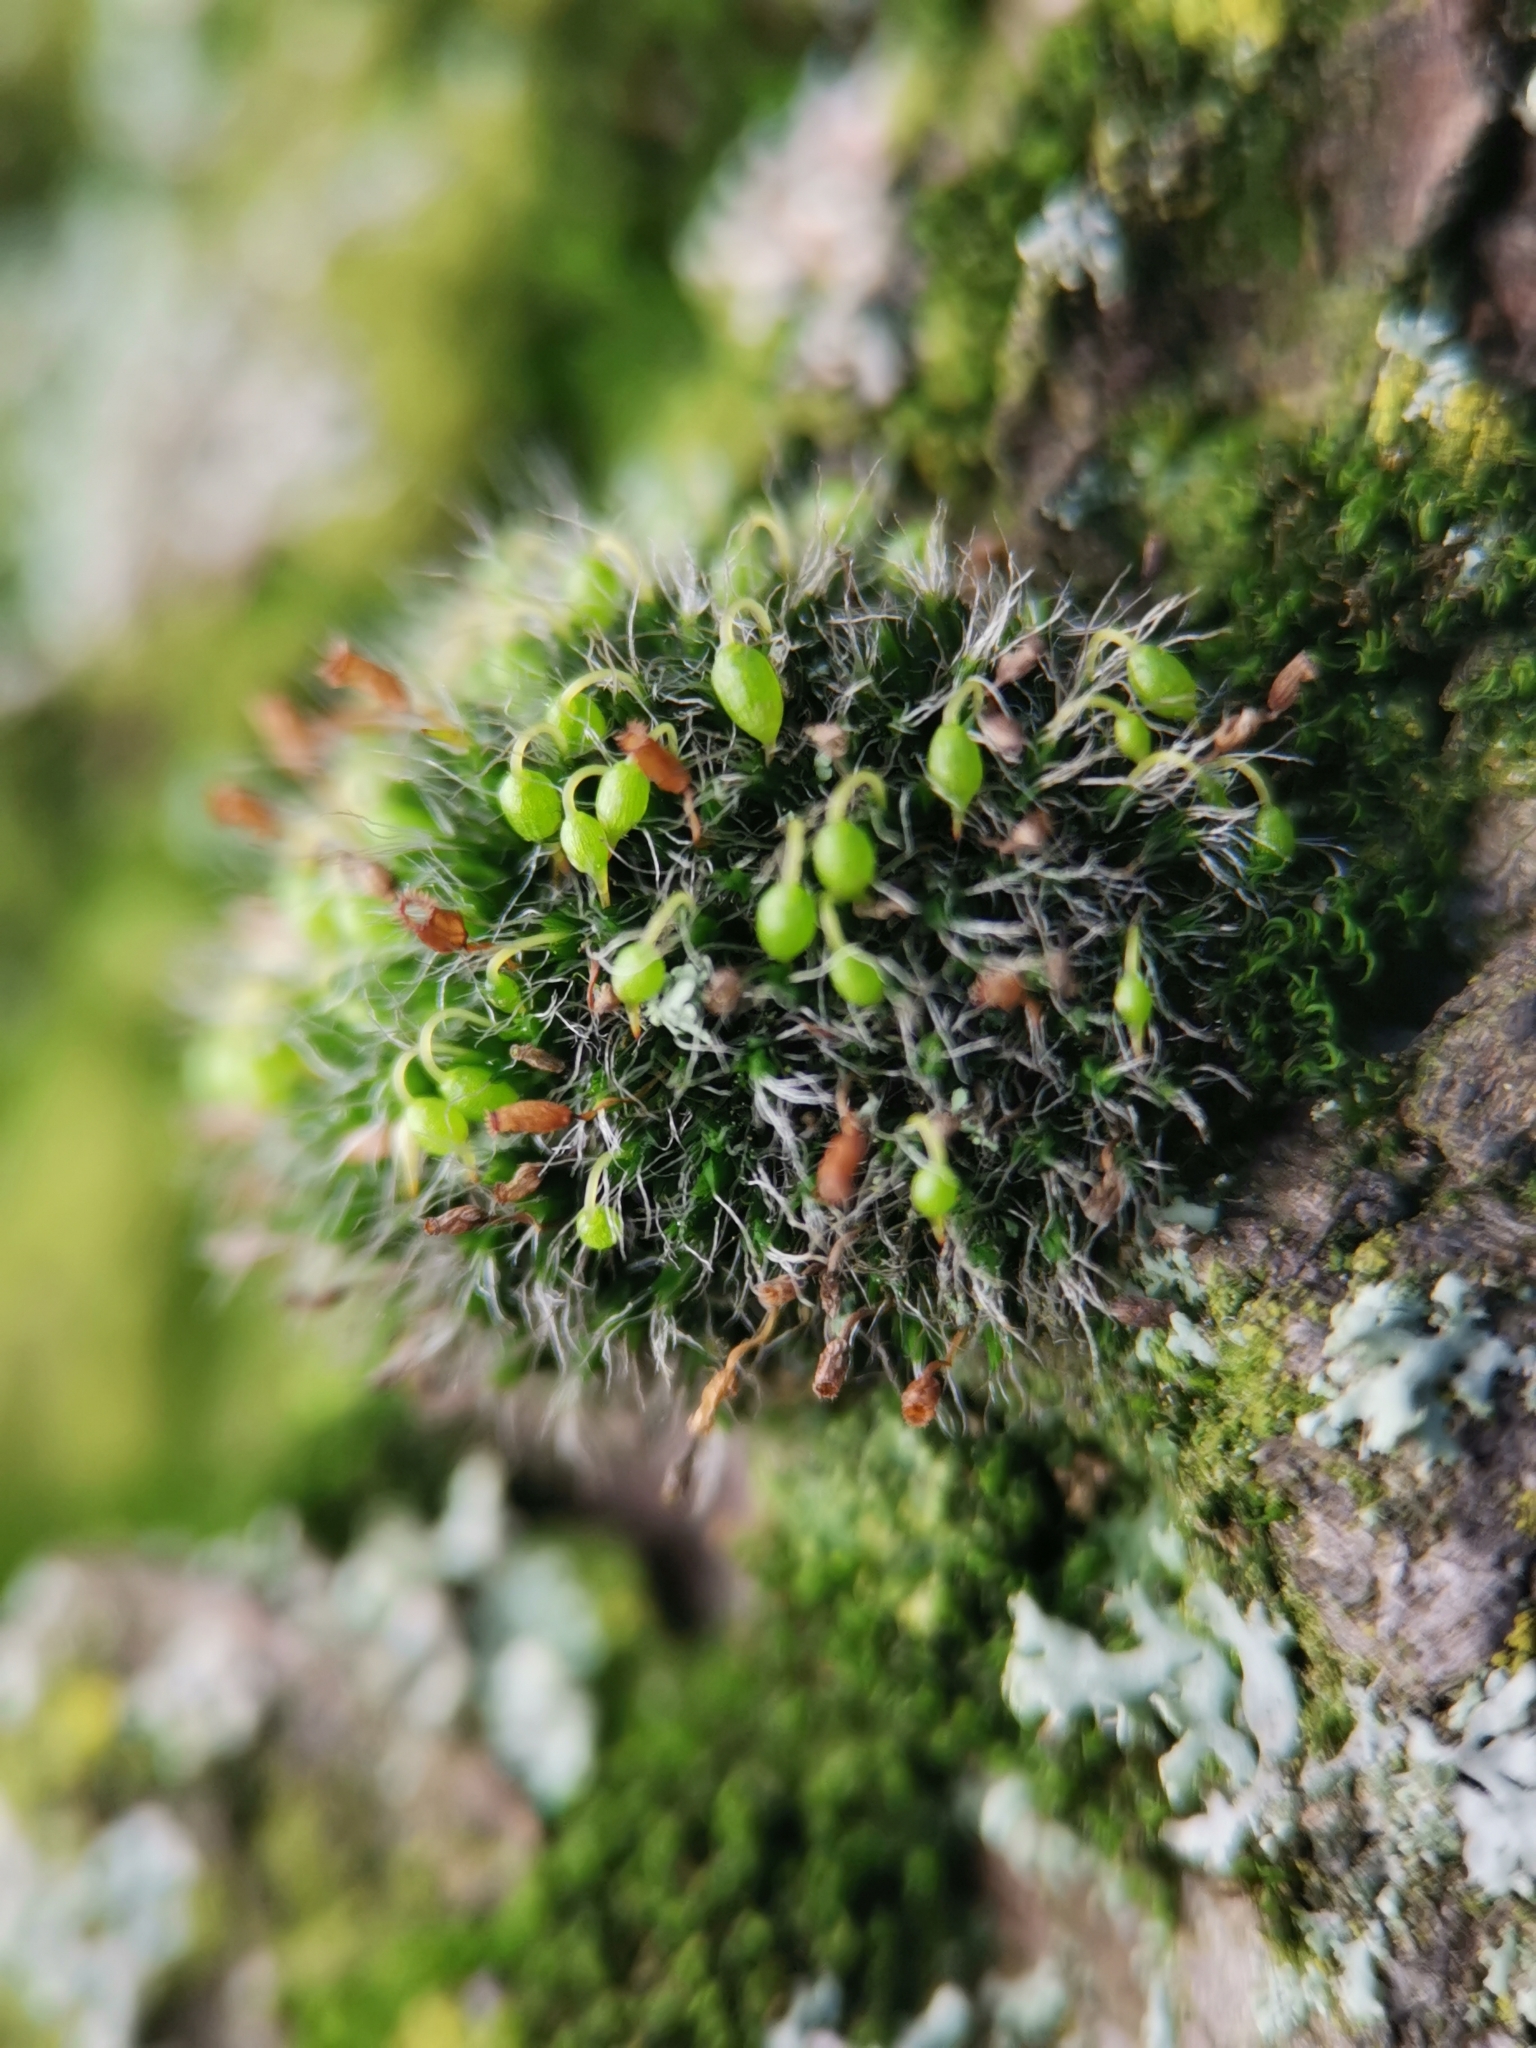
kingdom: Plantae
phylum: Bryophyta
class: Bryopsida
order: Grimmiales
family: Grimmiaceae
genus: Grimmia
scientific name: Grimmia pulvinata
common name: Grey-cushioned grimmia
